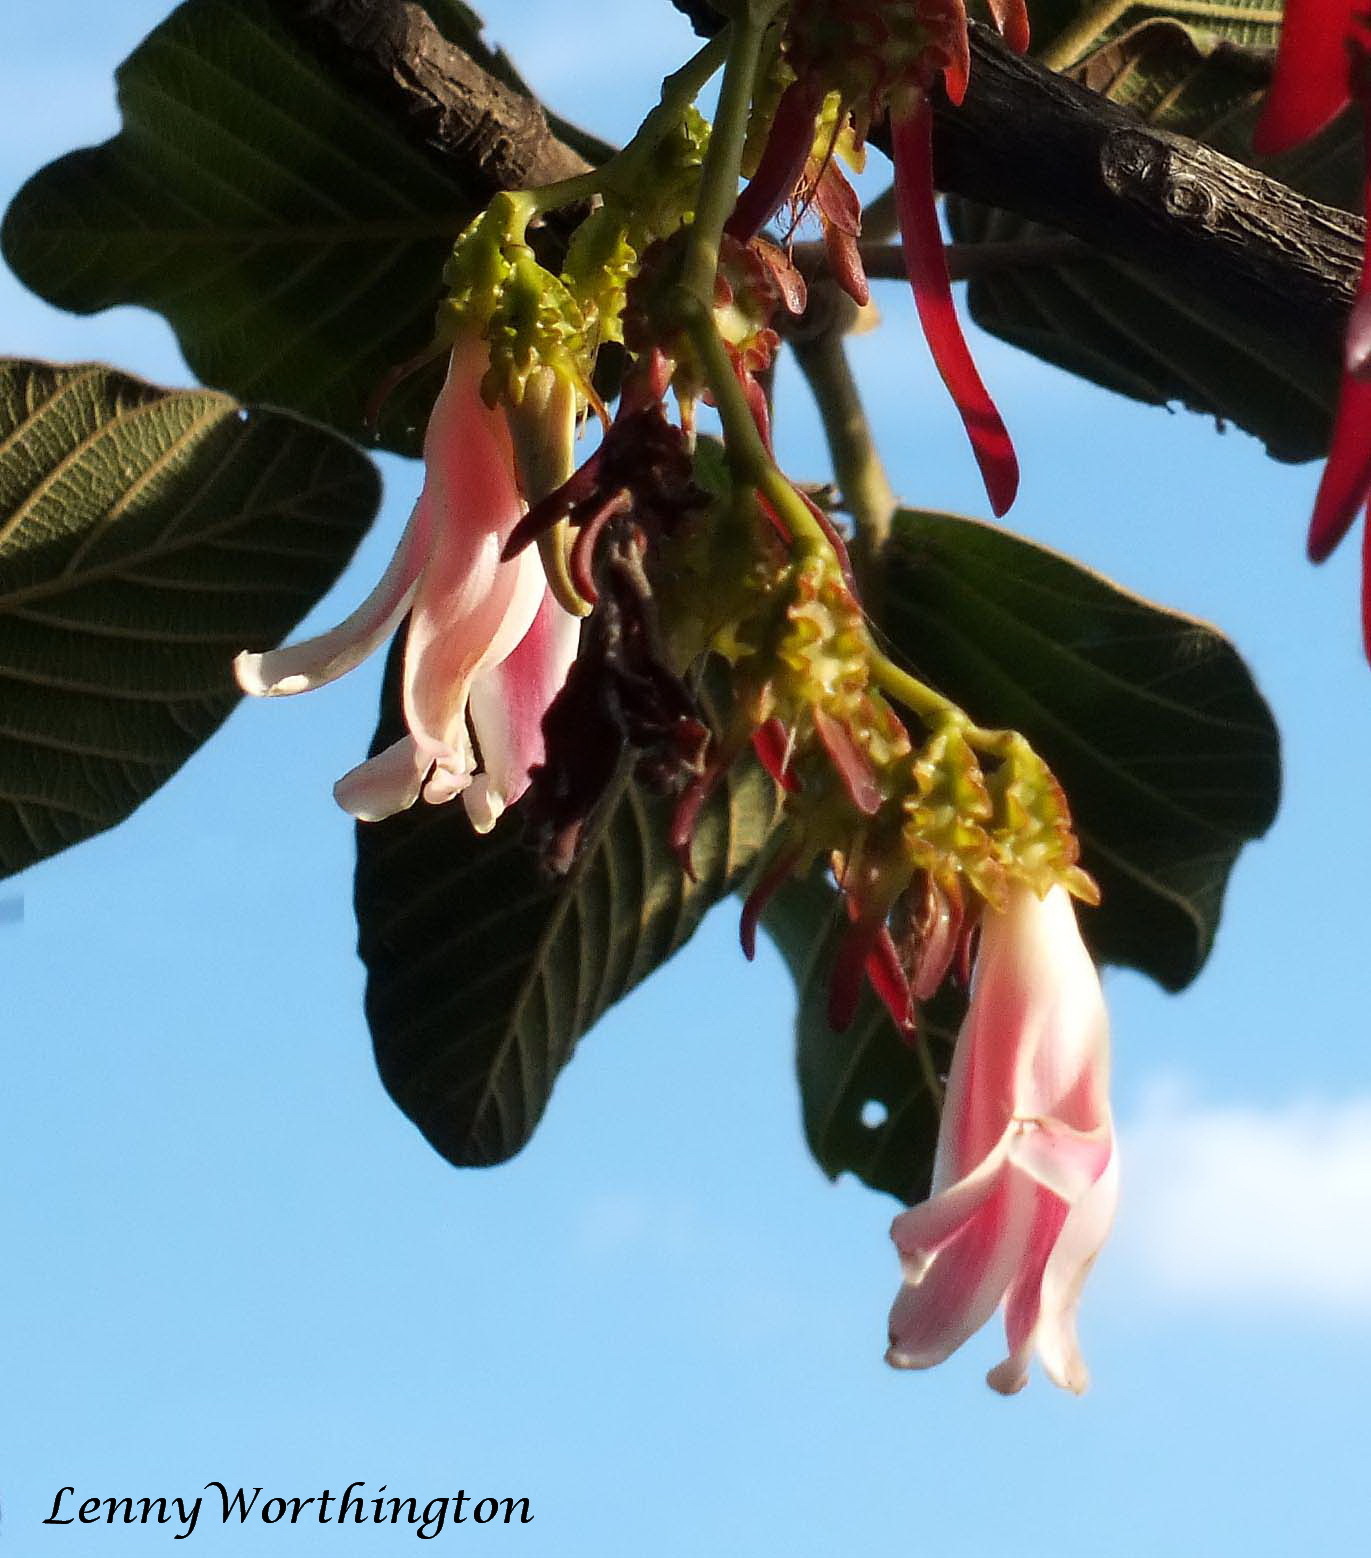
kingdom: Plantae
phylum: Tracheophyta
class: Magnoliopsida
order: Malvales
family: Dipterocarpaceae
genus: Dipterocarpus
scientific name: Dipterocarpus intricatus
